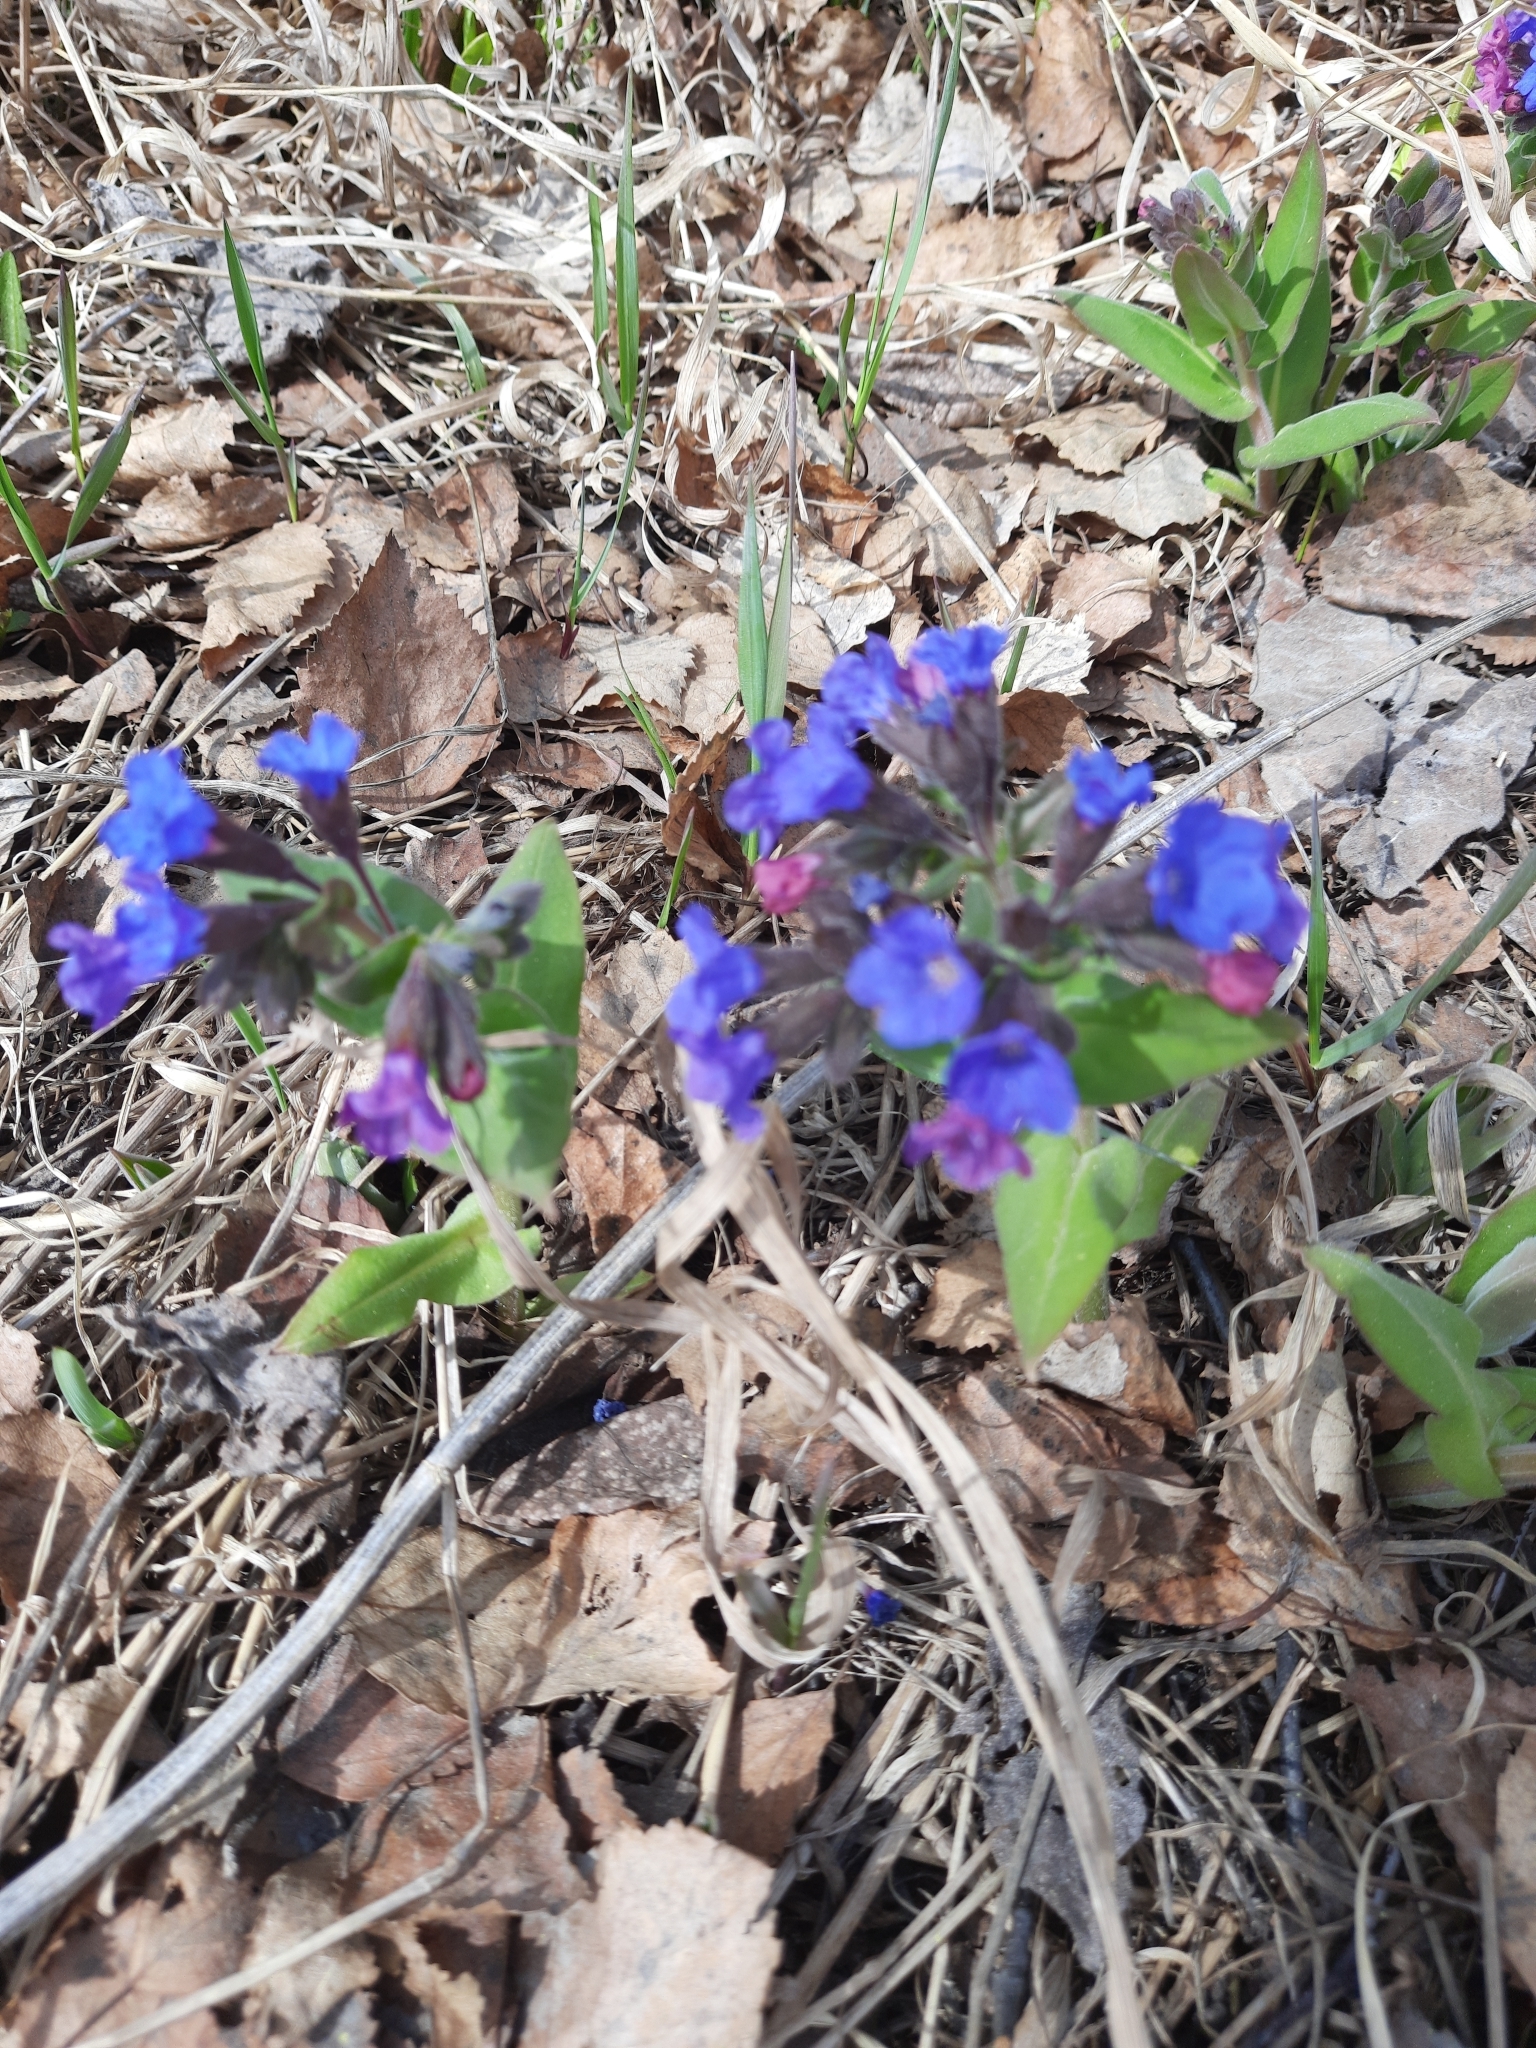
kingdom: Plantae
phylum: Tracheophyta
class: Magnoliopsida
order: Boraginales
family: Boraginaceae
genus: Pulmonaria
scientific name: Pulmonaria mollis
